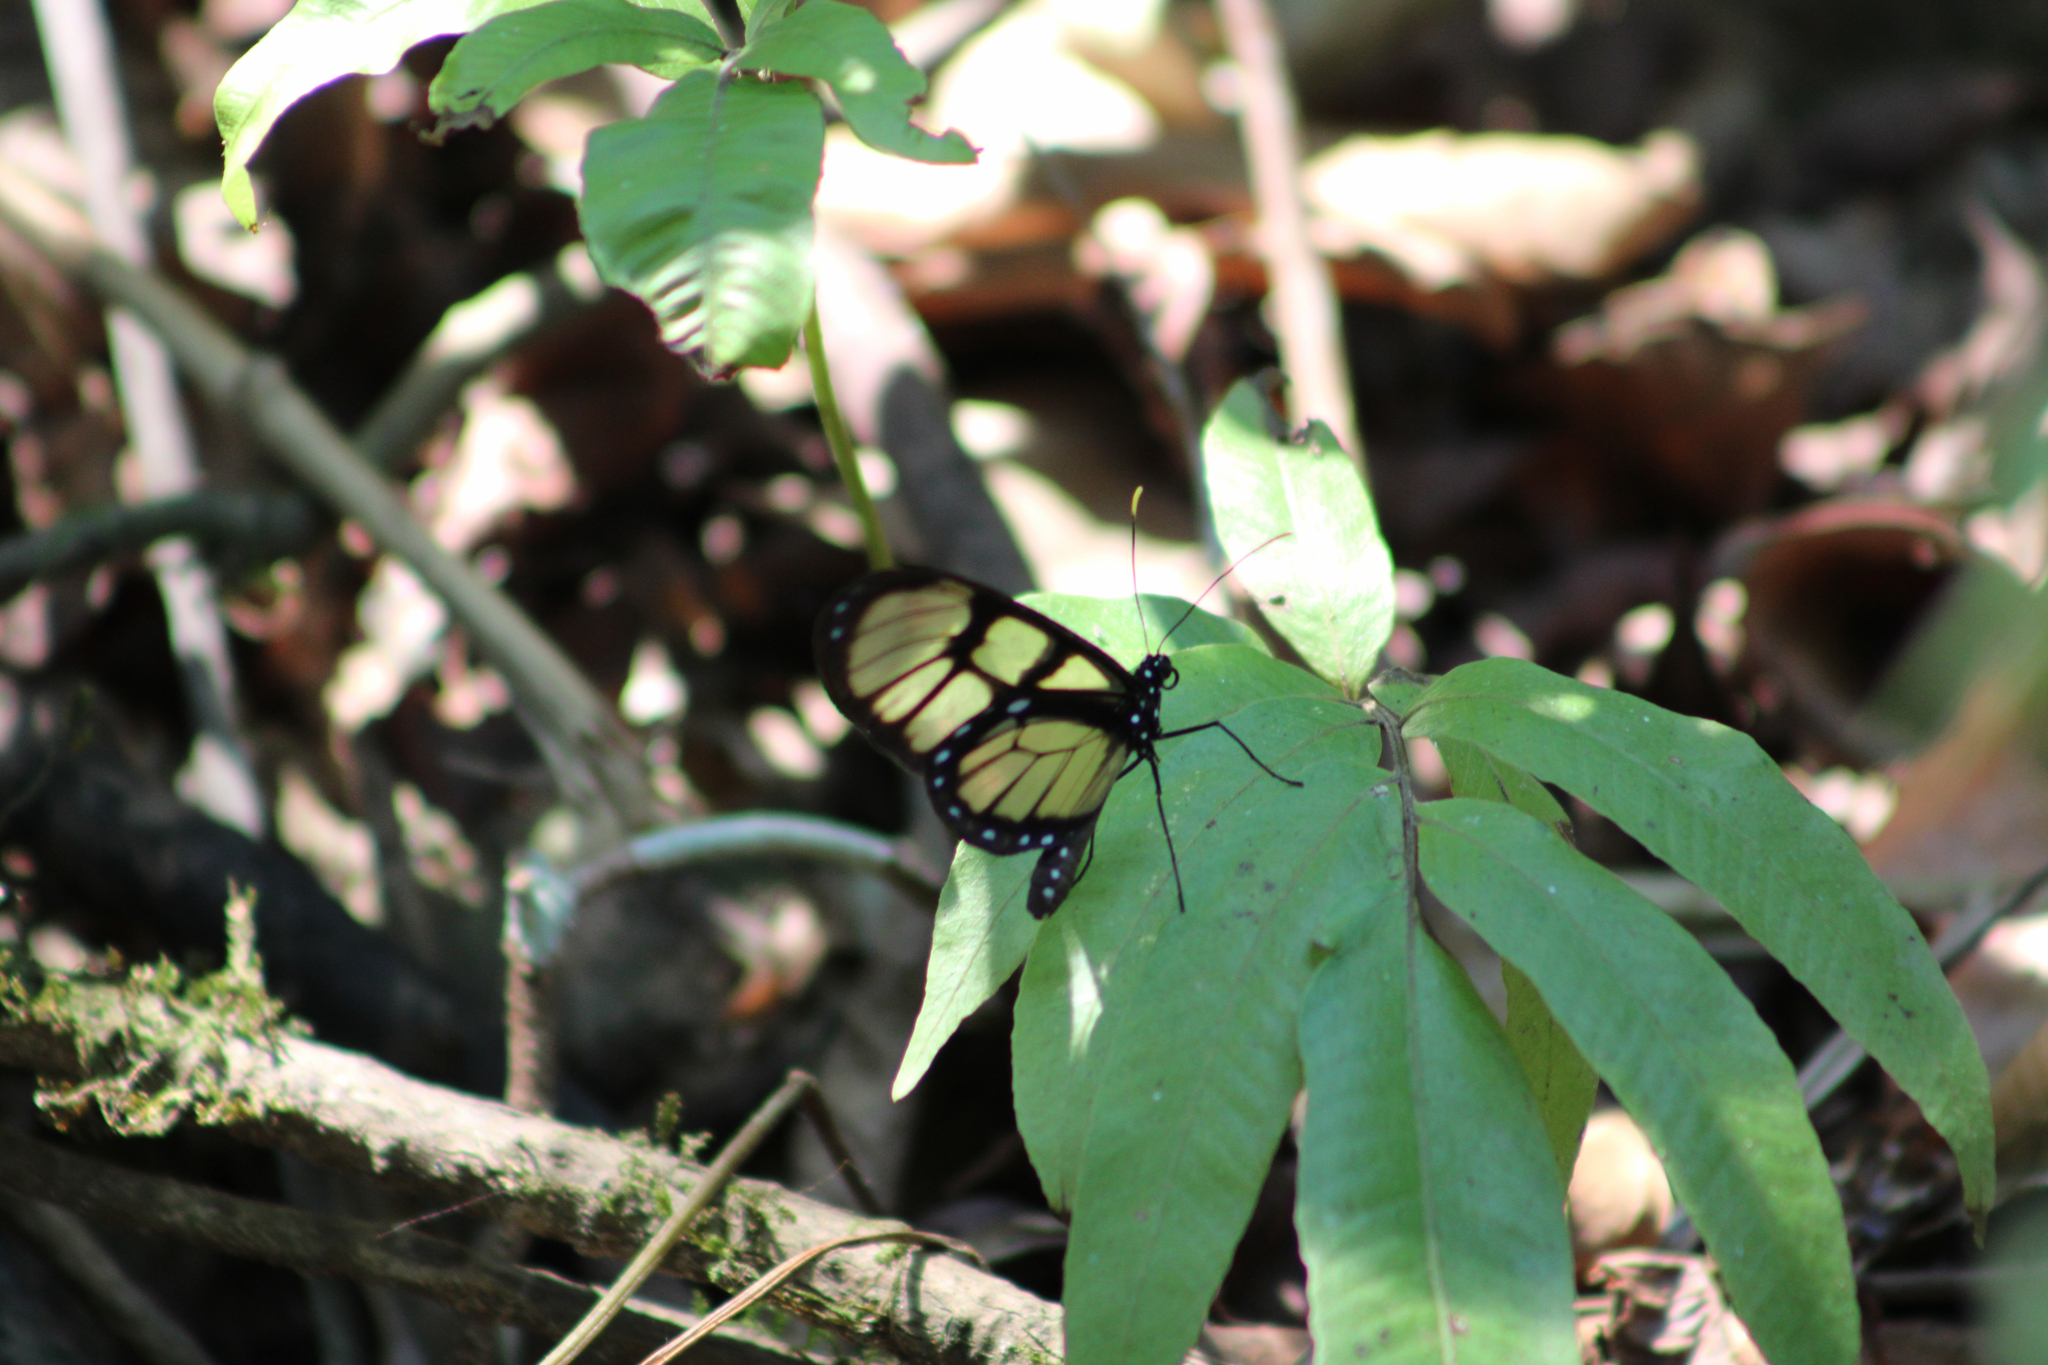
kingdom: Animalia
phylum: Arthropoda
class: Insecta
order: Lepidoptera
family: Nymphalidae
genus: Dircenna
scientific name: Dircenna dero
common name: Dero clearwing
